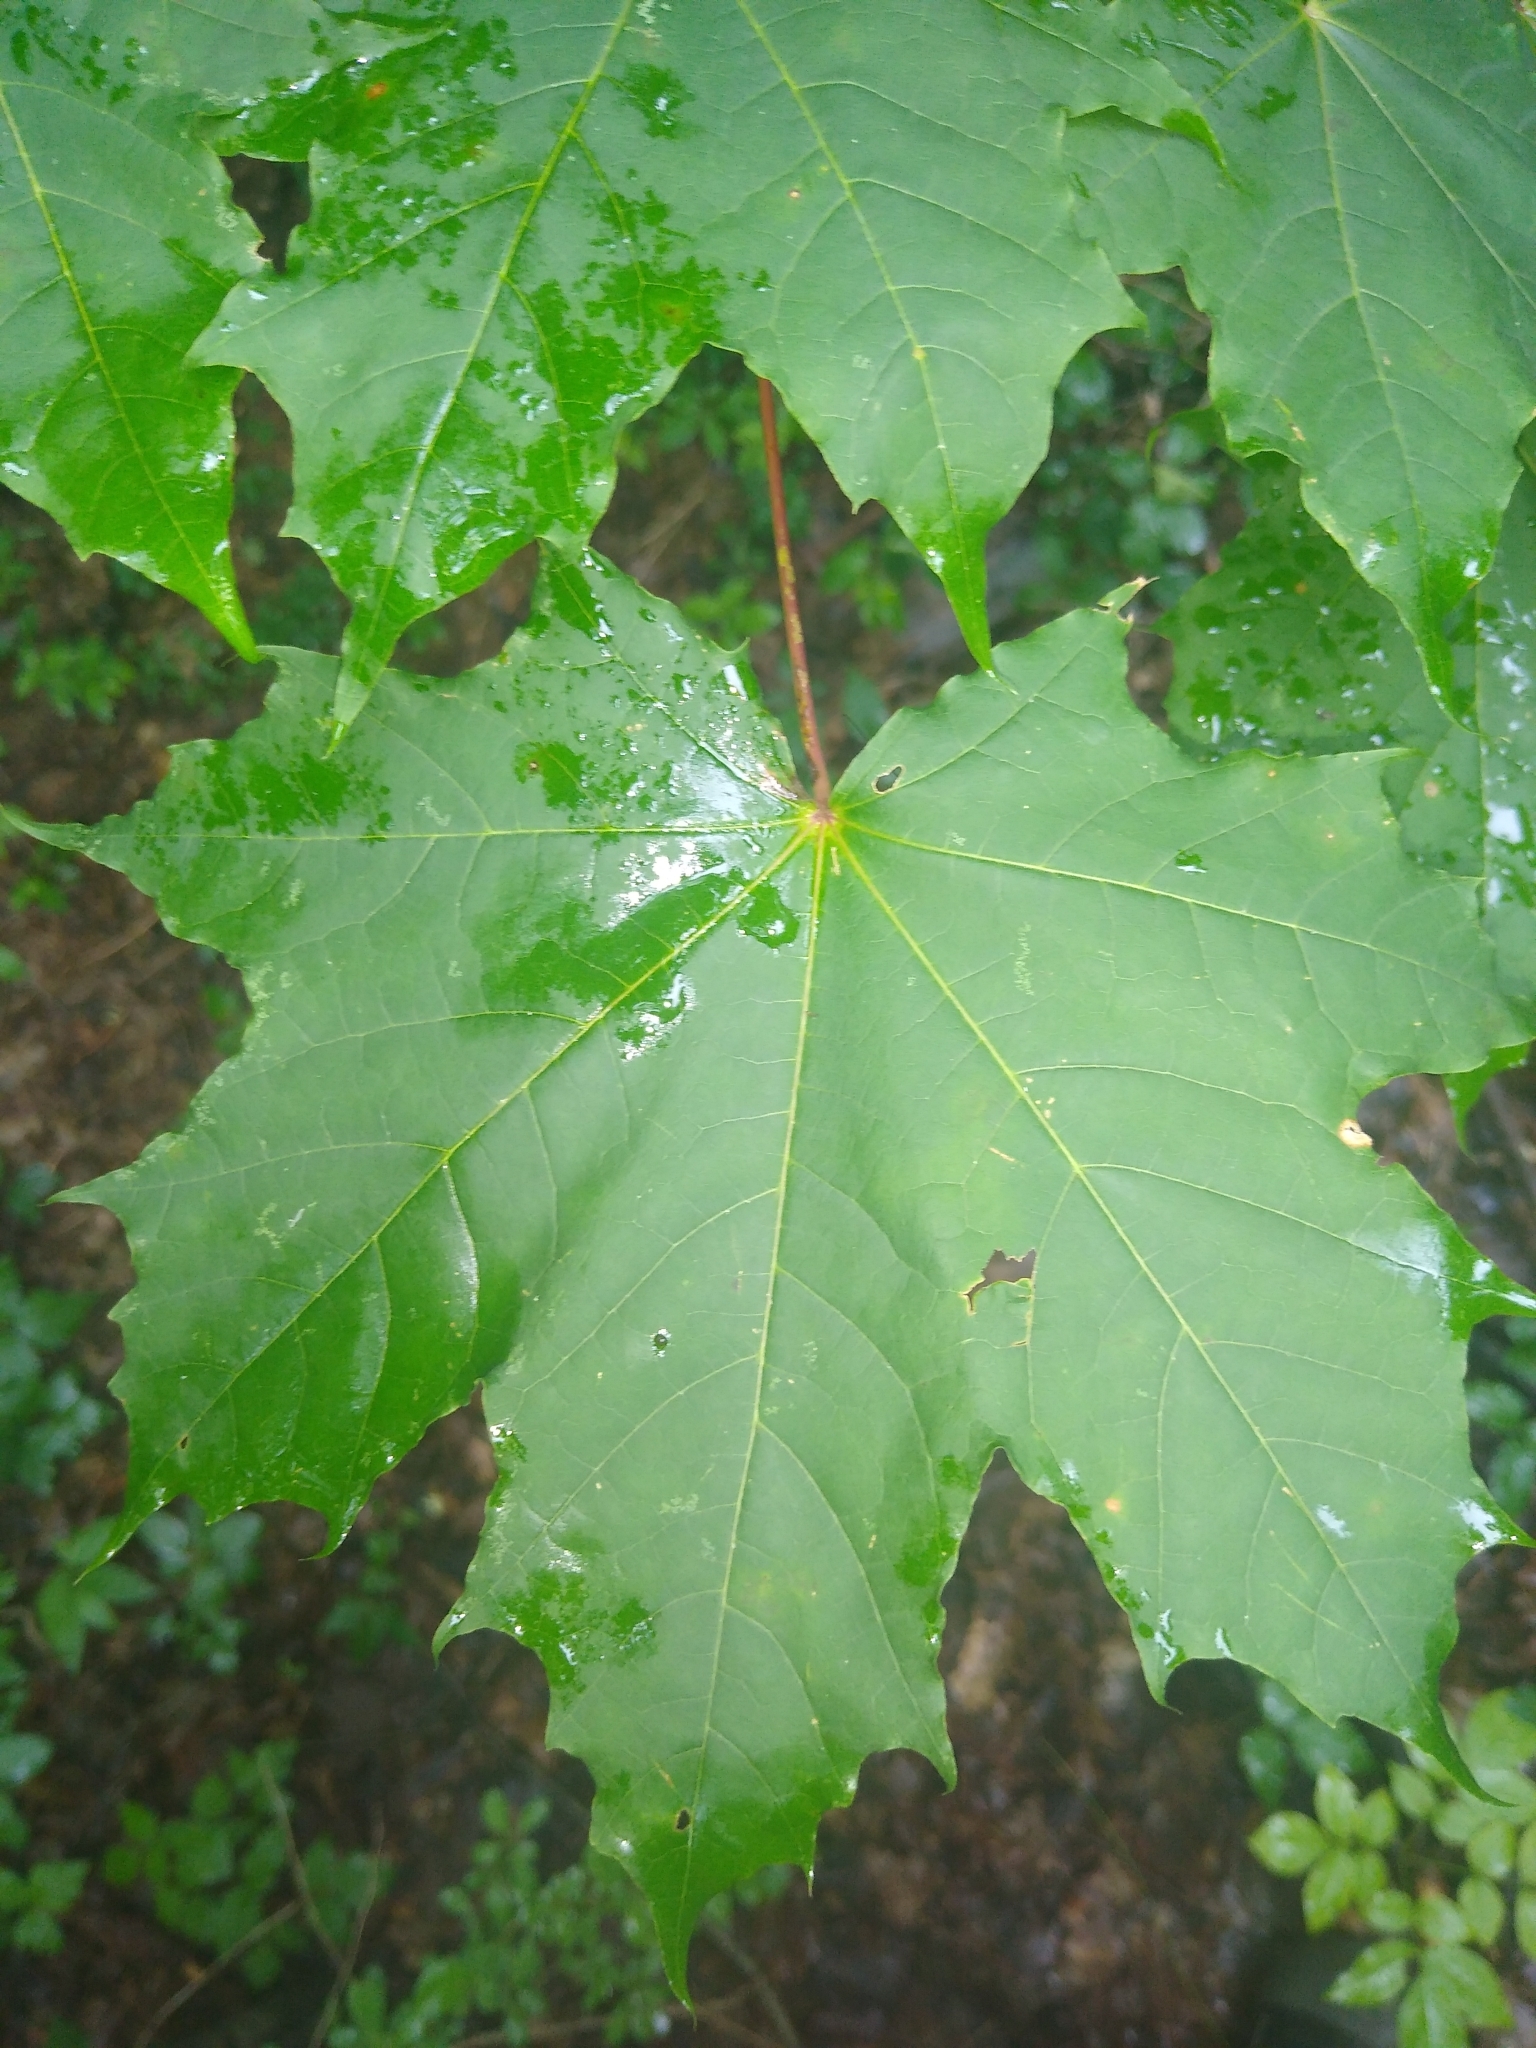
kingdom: Plantae
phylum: Tracheophyta
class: Magnoliopsida
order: Sapindales
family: Sapindaceae
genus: Acer
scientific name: Acer platanoides
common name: Norway maple
